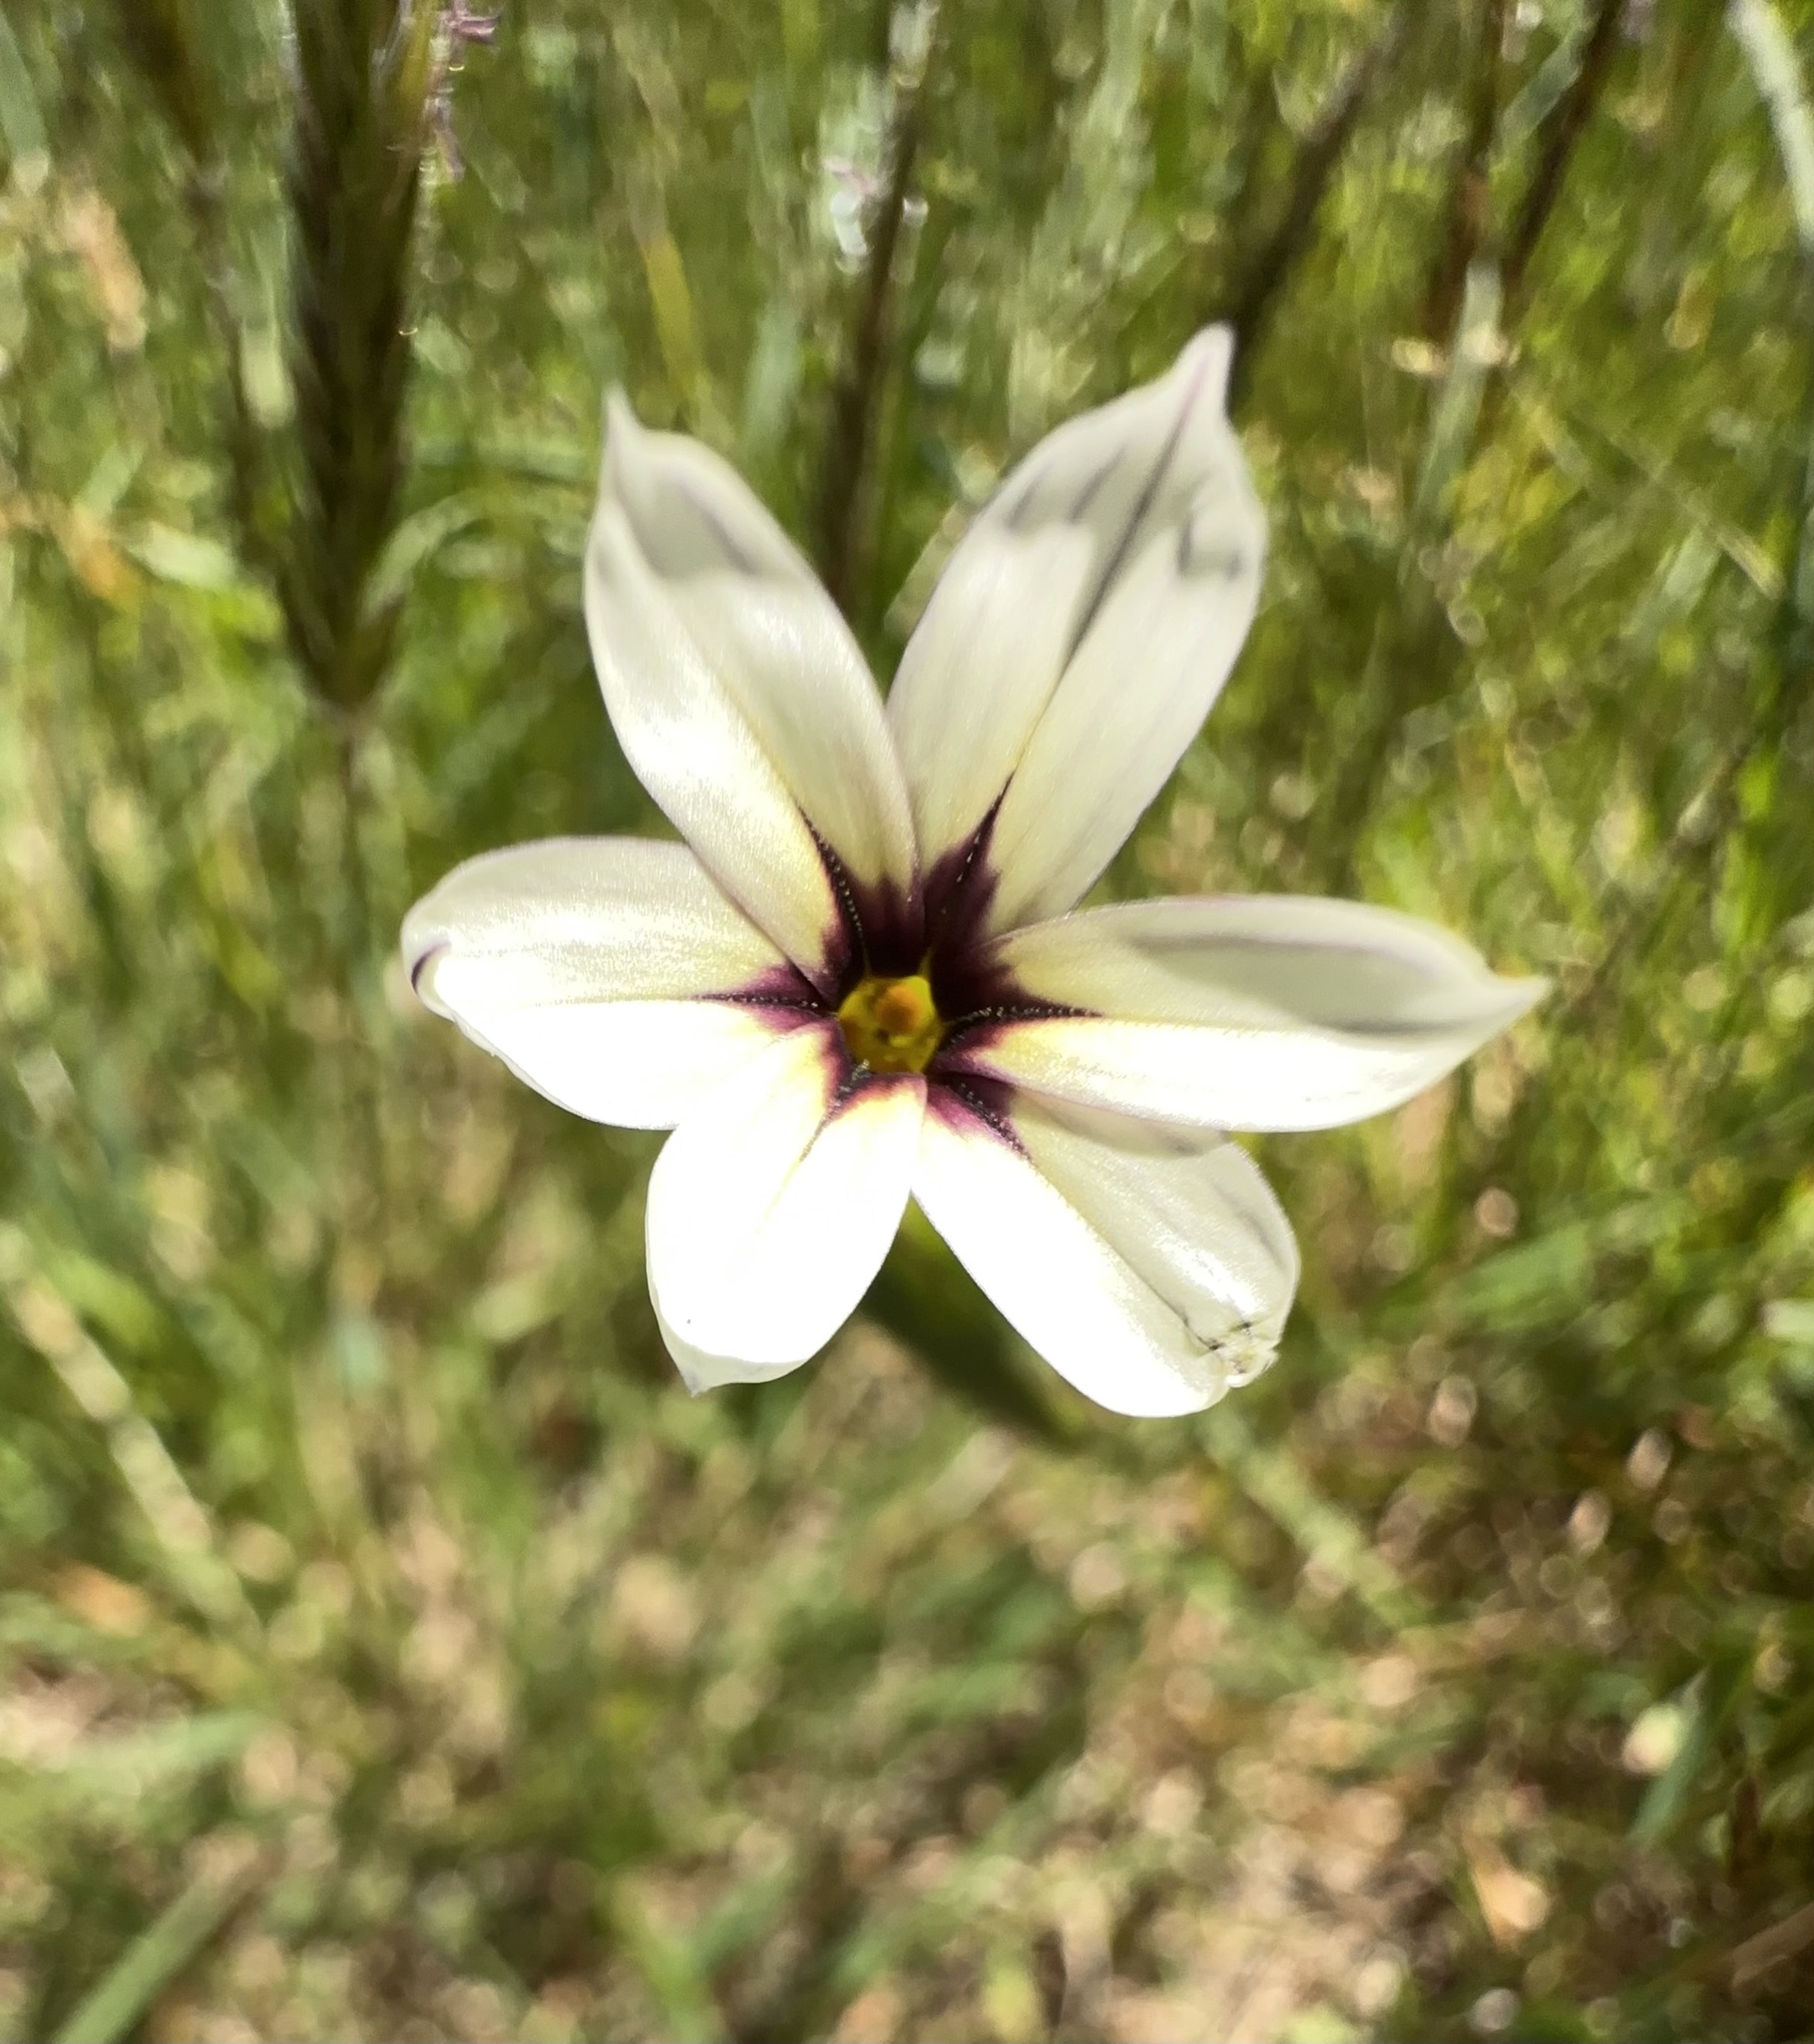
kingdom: Plantae
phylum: Tracheophyta
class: Liliopsida
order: Asparagales
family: Iridaceae
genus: Sisyrinchium
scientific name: Sisyrinchium micranthum
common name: Bermuda pigroot
